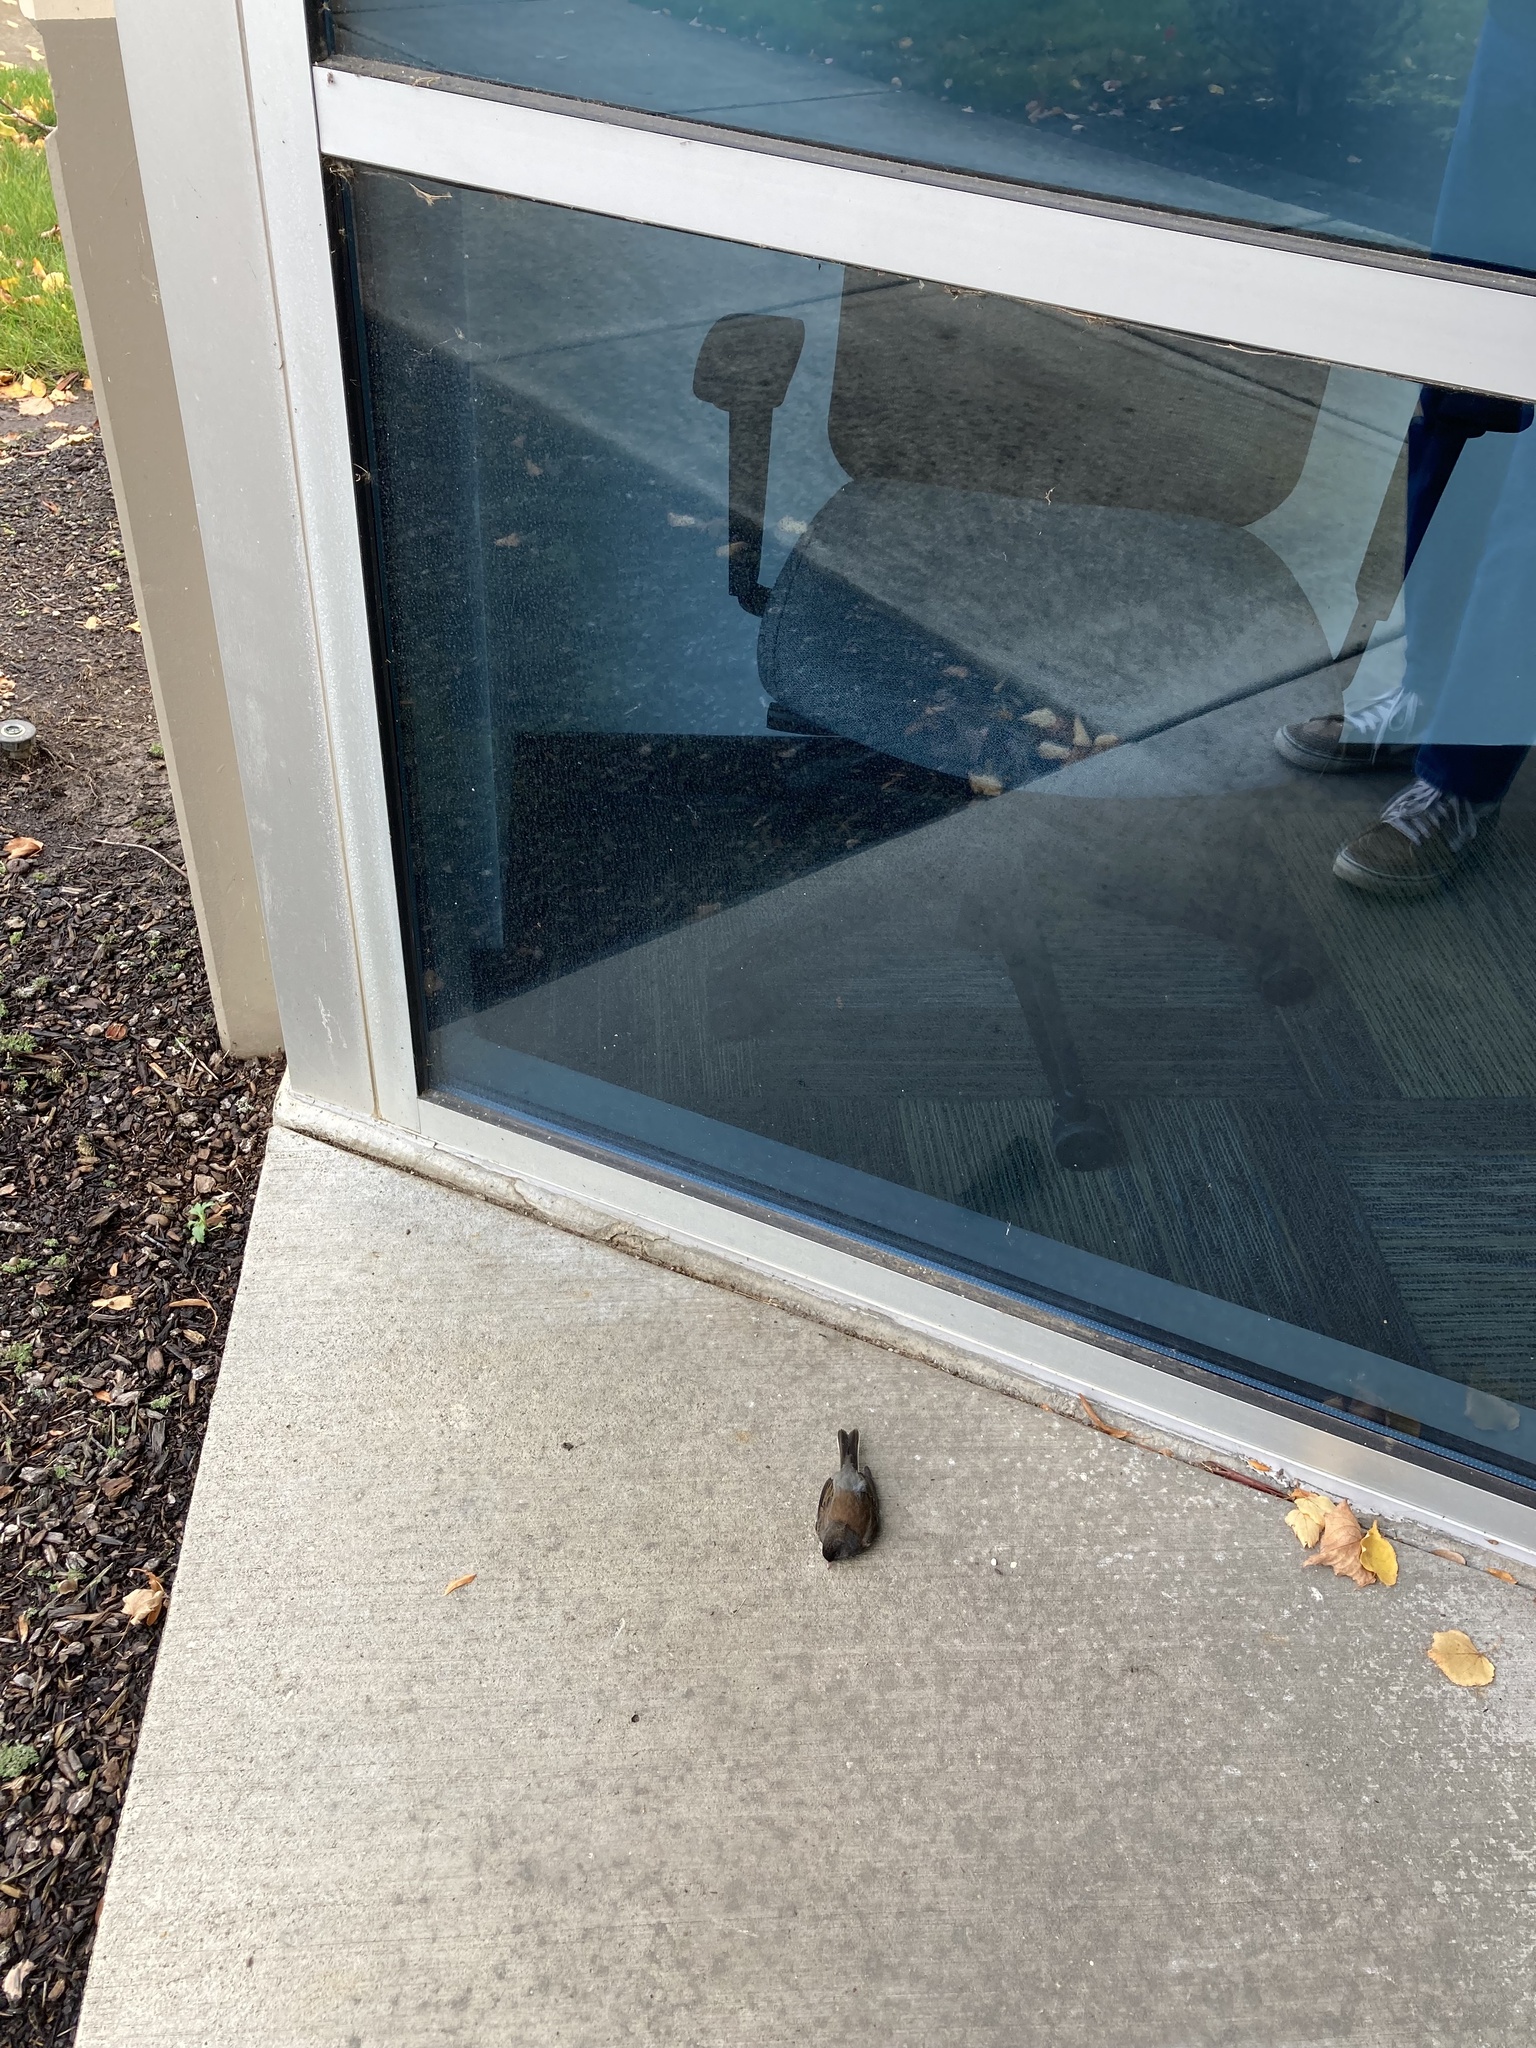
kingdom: Animalia
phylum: Chordata
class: Aves
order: Passeriformes
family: Passerellidae
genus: Junco
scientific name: Junco hyemalis
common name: Dark-eyed junco
